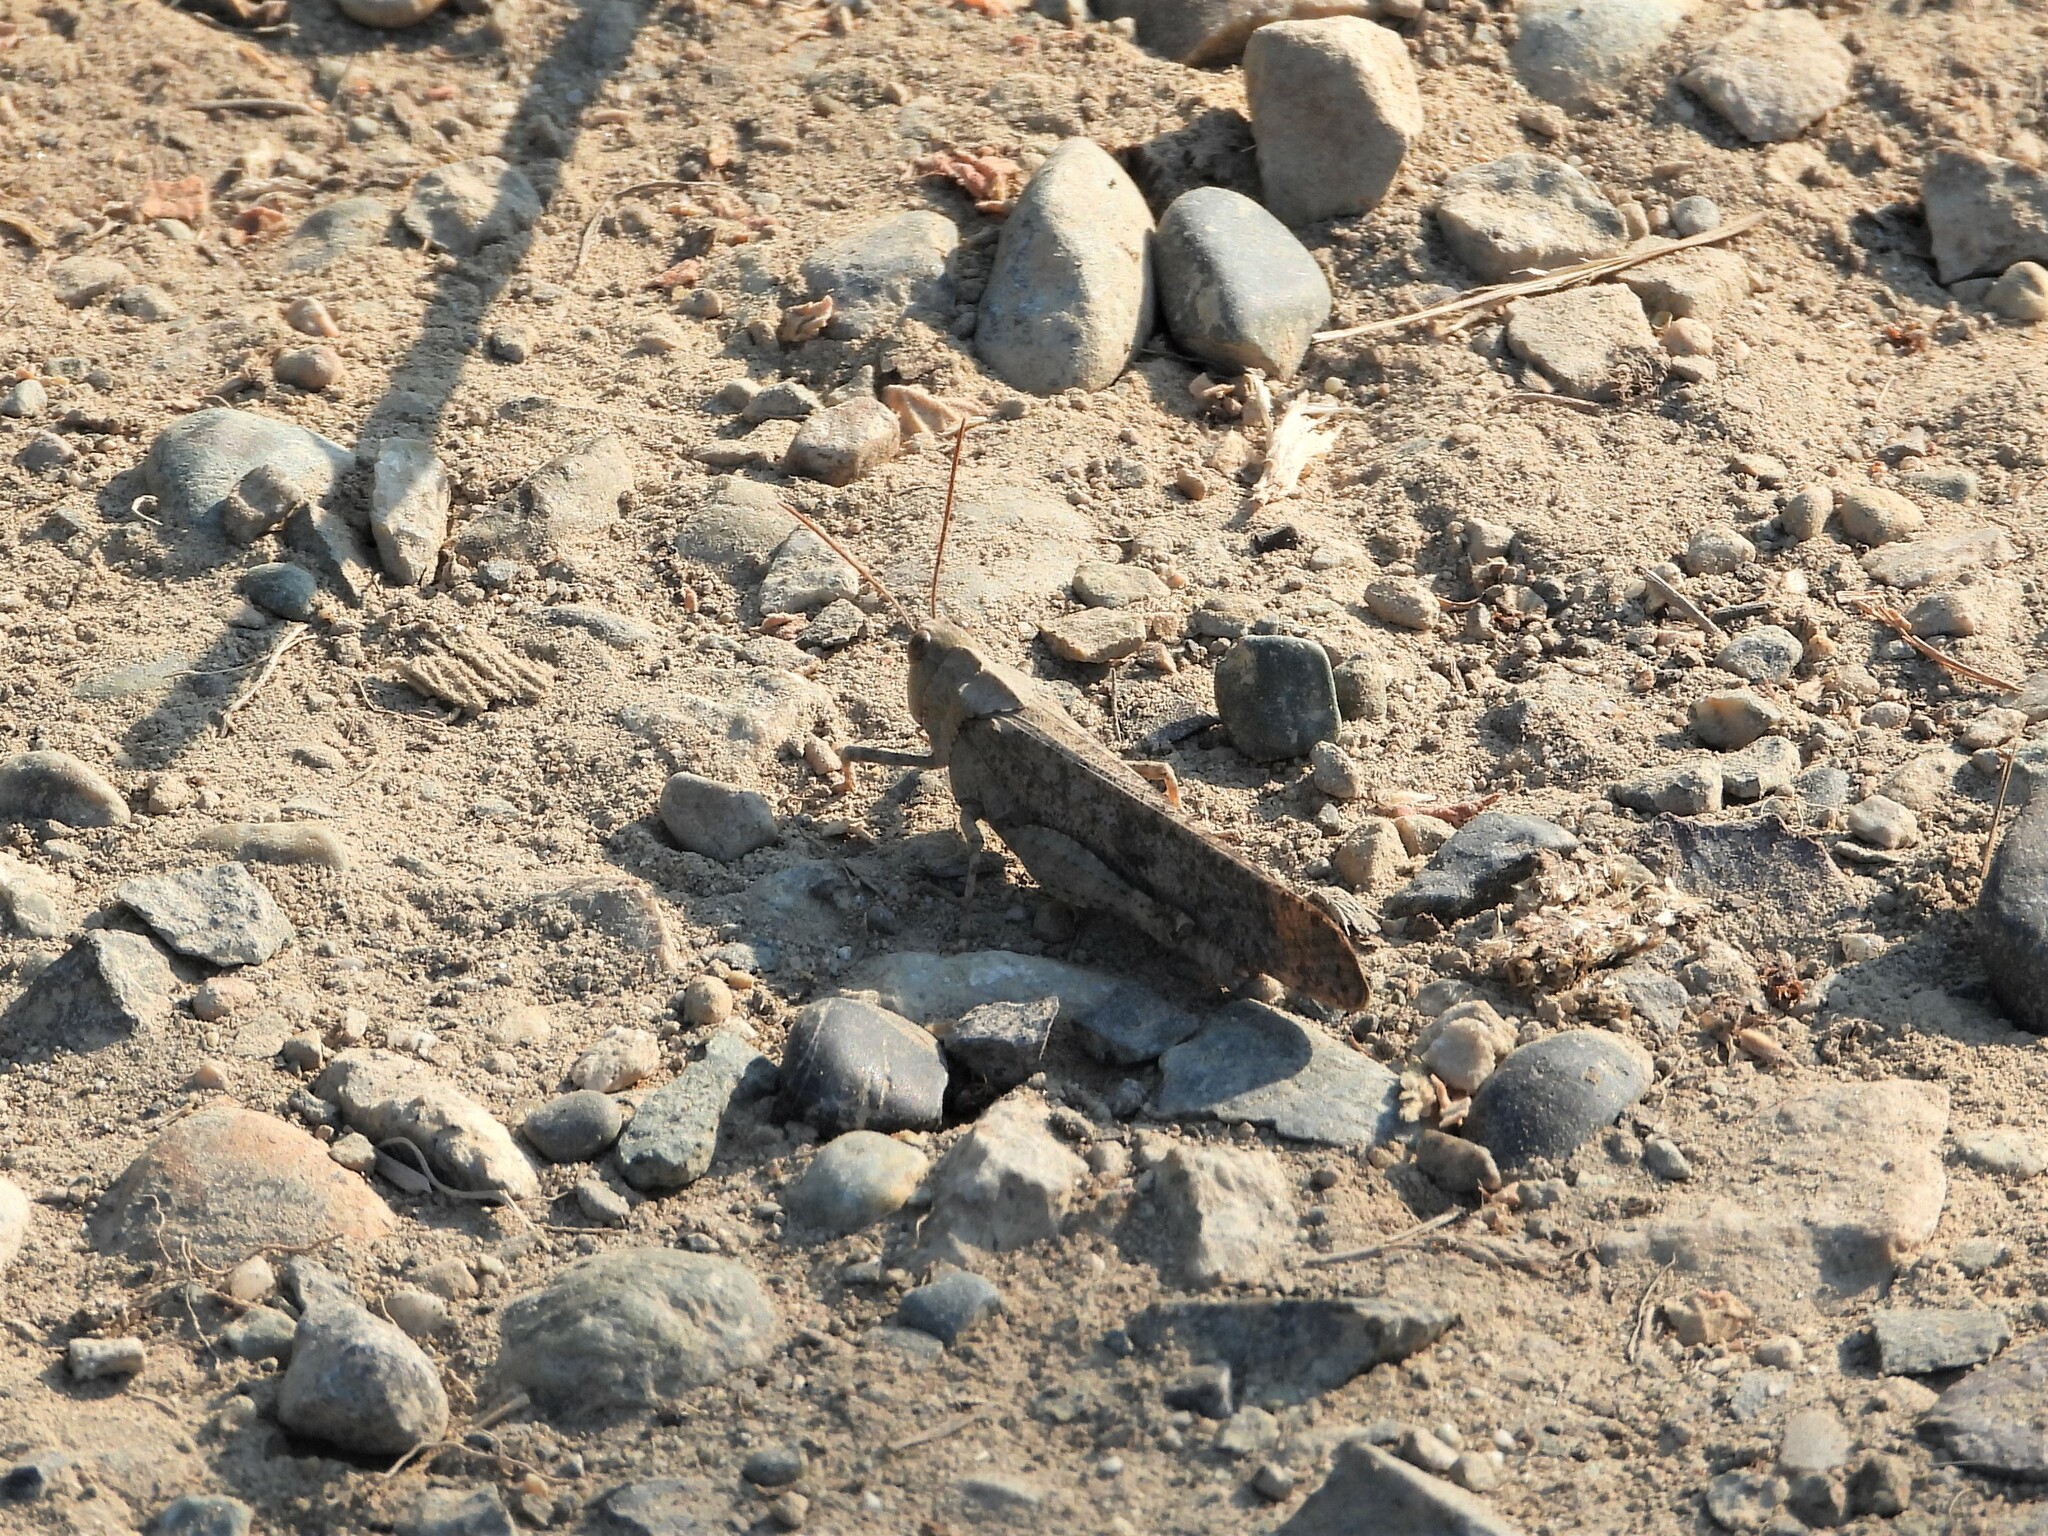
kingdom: Animalia
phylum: Arthropoda
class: Insecta
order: Orthoptera
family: Acrididae
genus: Dissosteira
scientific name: Dissosteira carolina
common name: Carolina grasshopper
